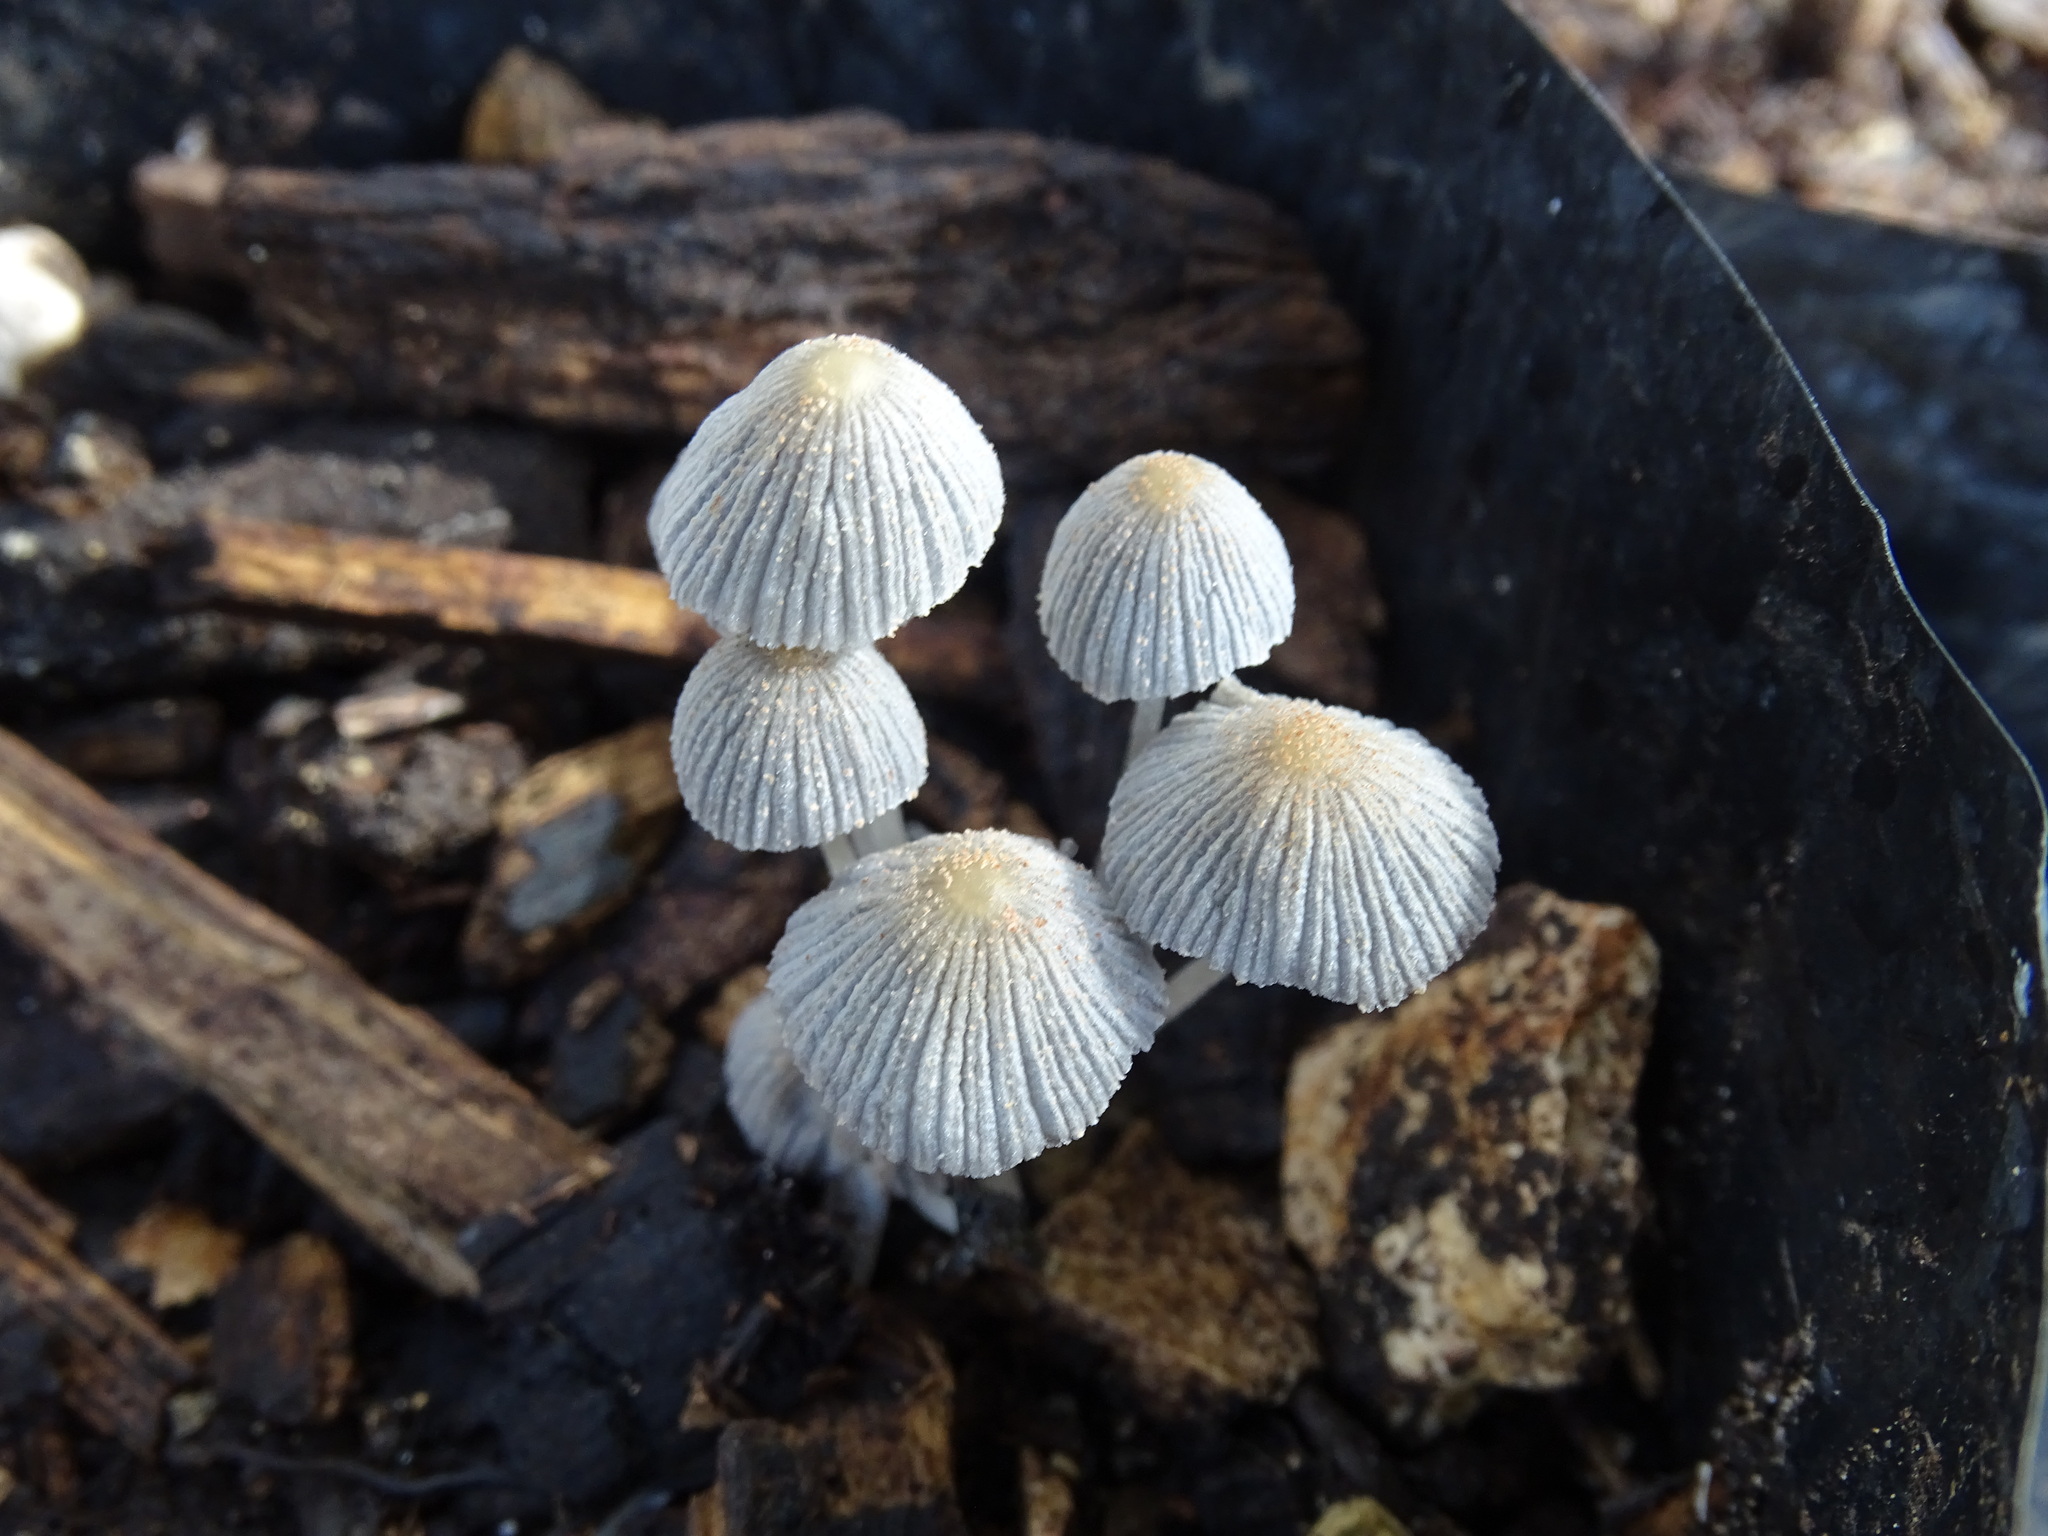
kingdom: Fungi
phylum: Basidiomycota
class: Agaricomycetes
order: Agaricales
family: Psathyrellaceae
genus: Coprinellus
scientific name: Coprinellus disseminatus
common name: Fairies' bonnets
